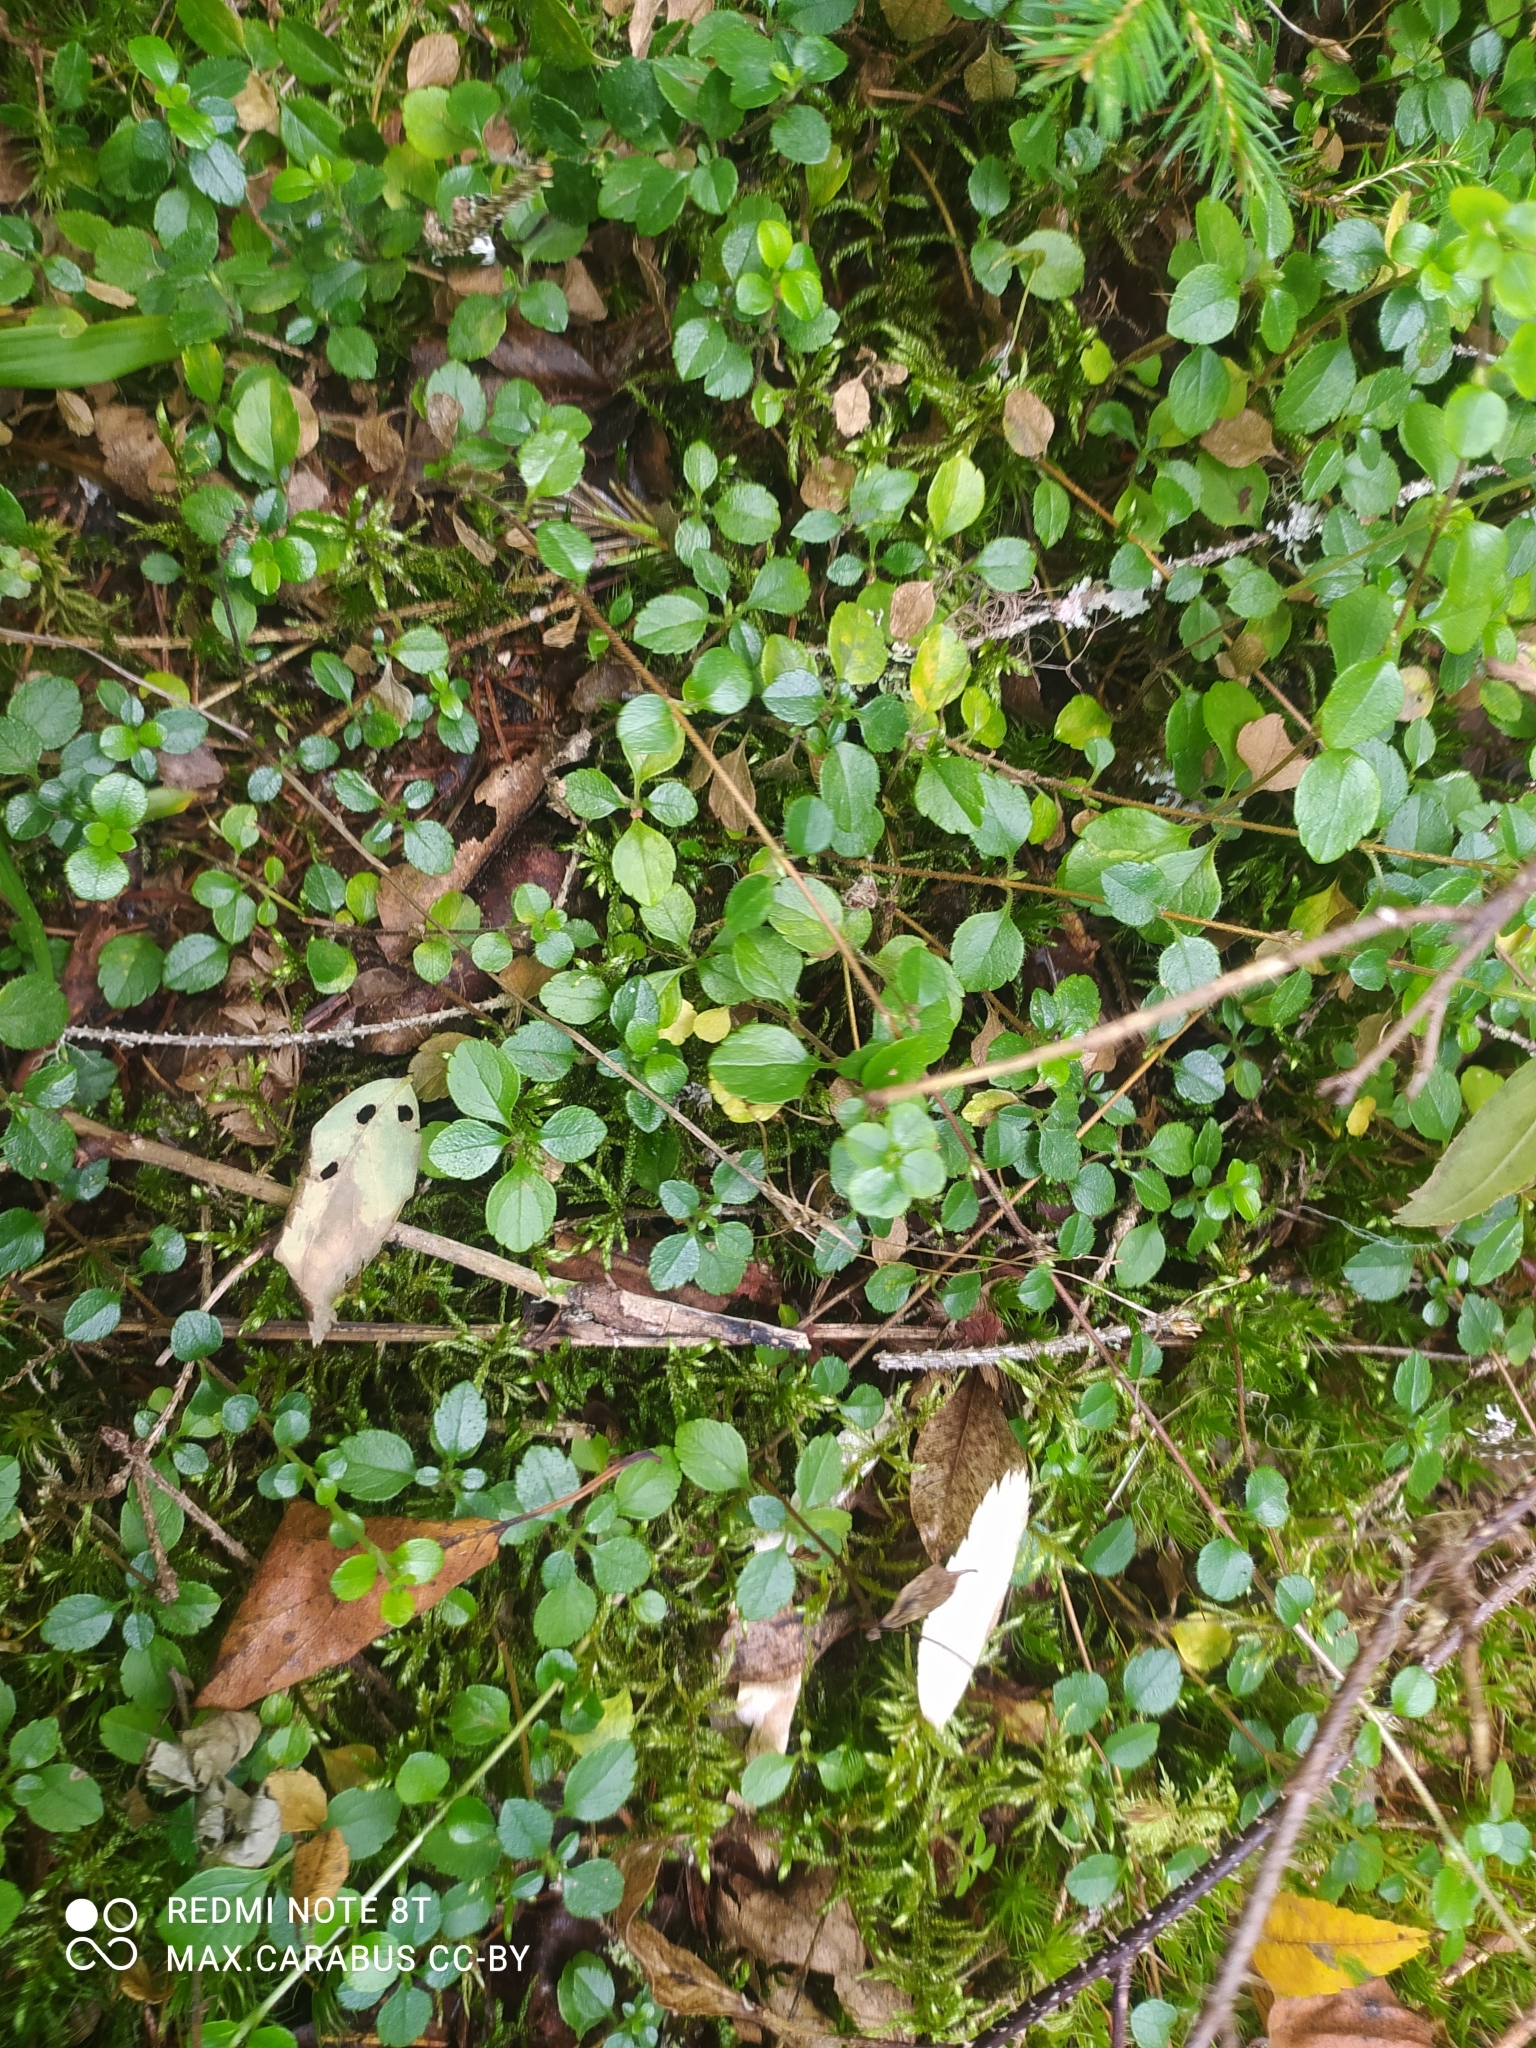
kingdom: Plantae
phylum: Tracheophyta
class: Magnoliopsida
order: Dipsacales
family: Caprifoliaceae
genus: Linnaea
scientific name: Linnaea borealis
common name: Twinflower
